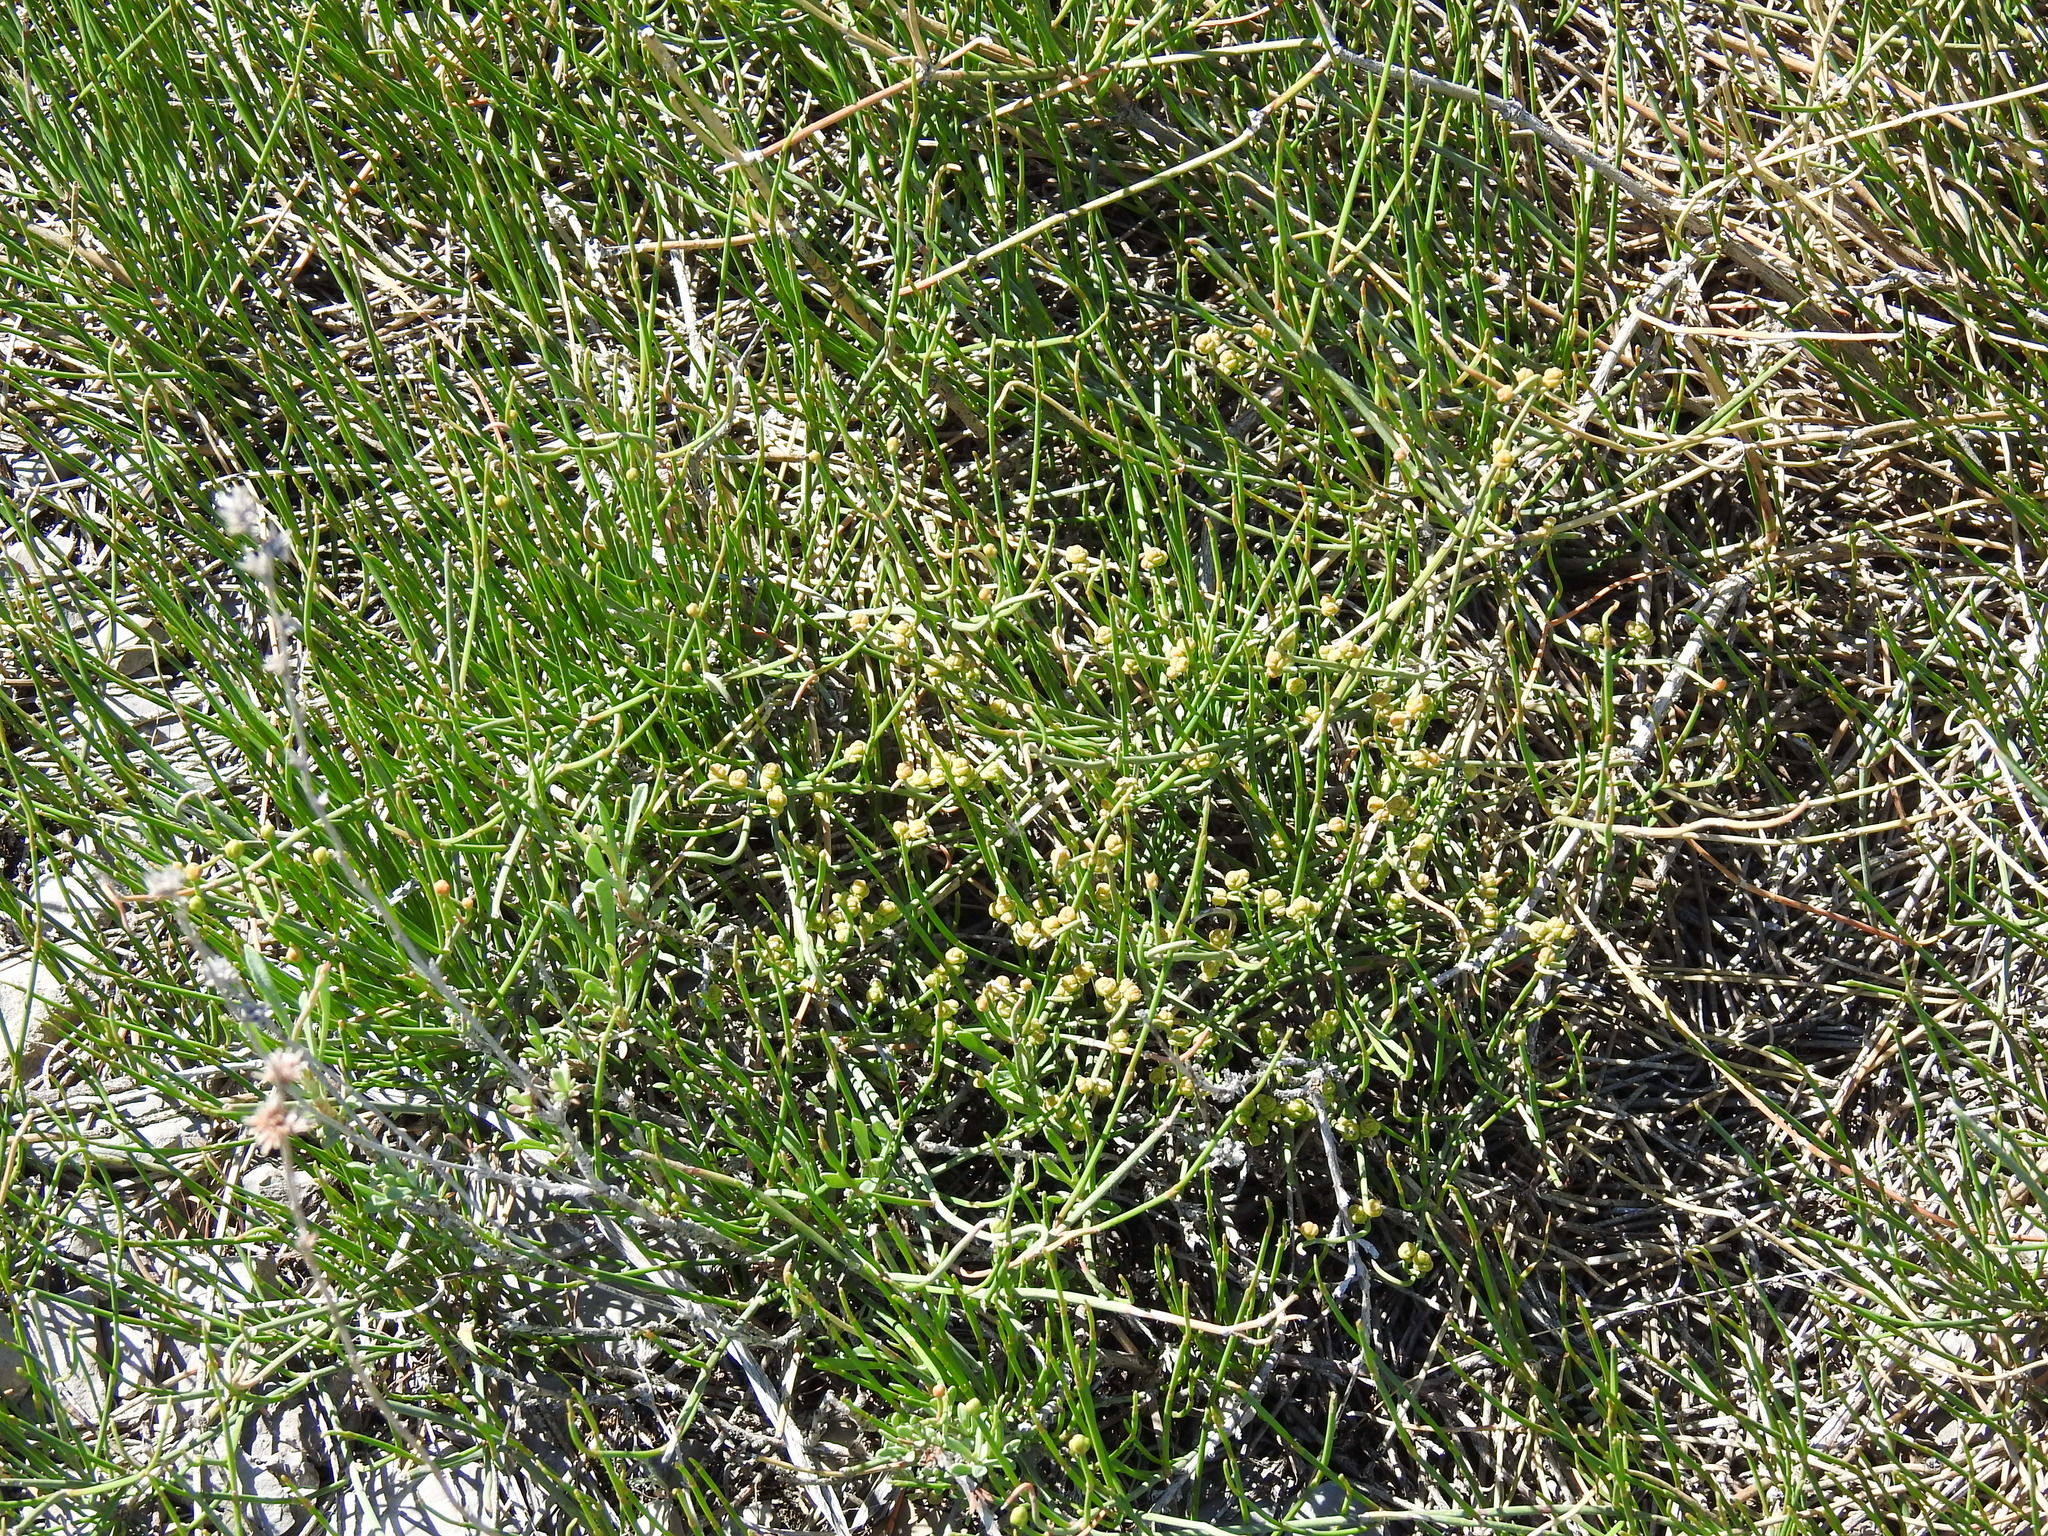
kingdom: Plantae
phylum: Tracheophyta
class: Gnetopsida
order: Ephedrales
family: Ephedraceae
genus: Ephedra
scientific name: Ephedra distachya
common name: Sea grape
